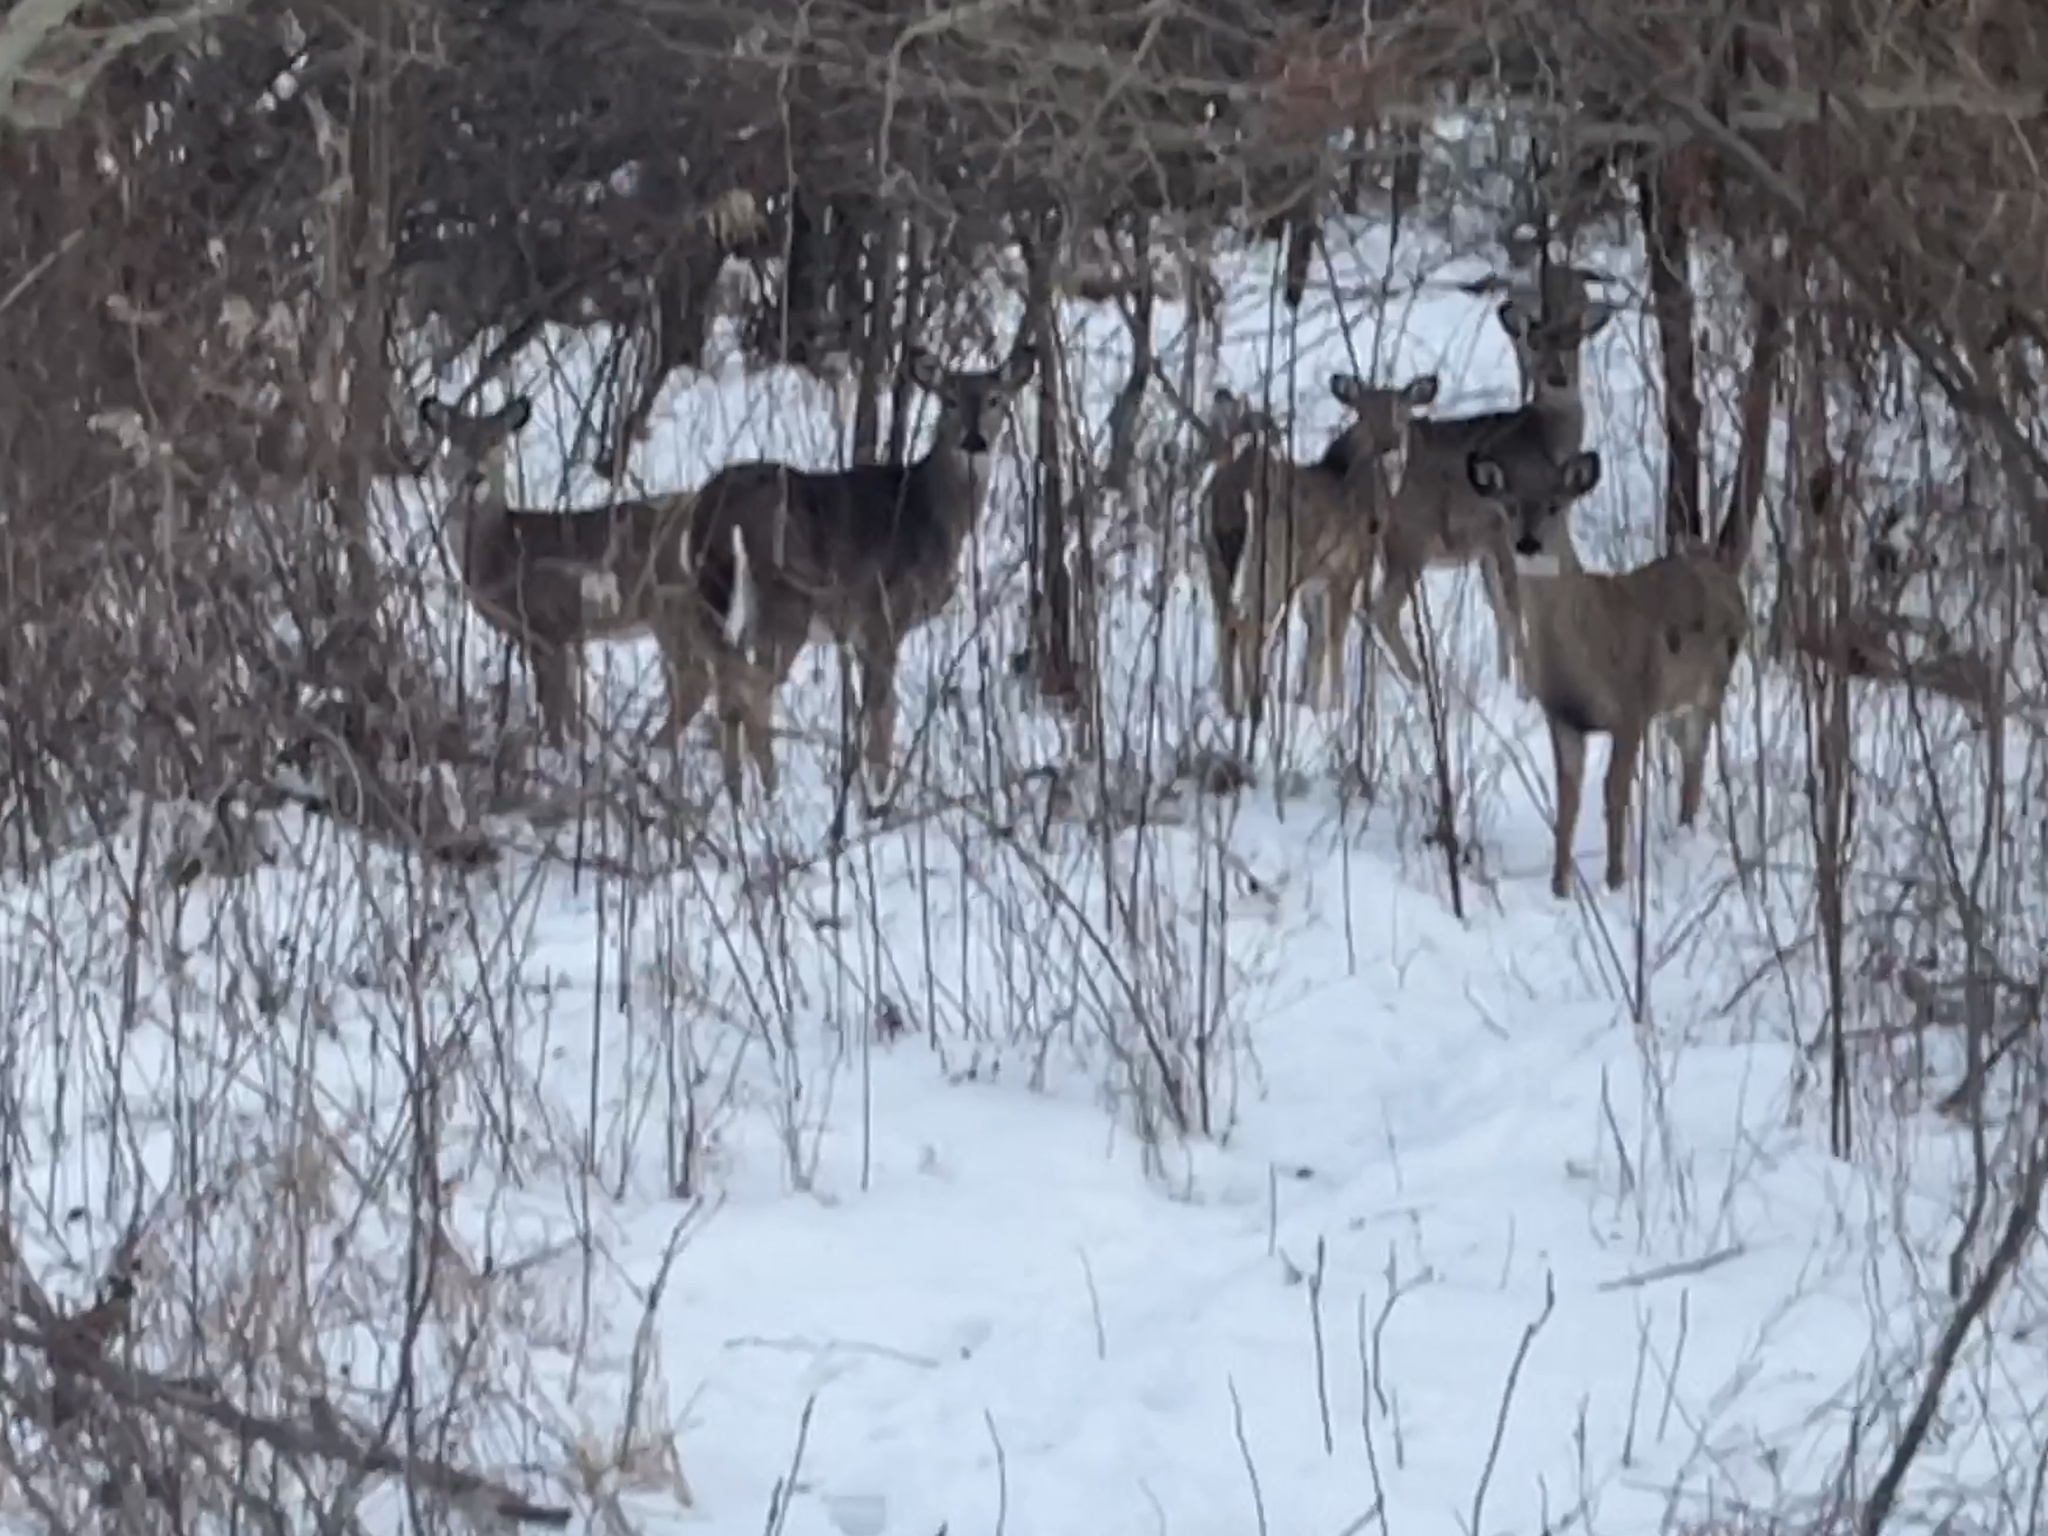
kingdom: Animalia
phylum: Chordata
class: Mammalia
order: Artiodactyla
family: Cervidae
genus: Odocoileus
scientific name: Odocoileus virginianus
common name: White-tailed deer
